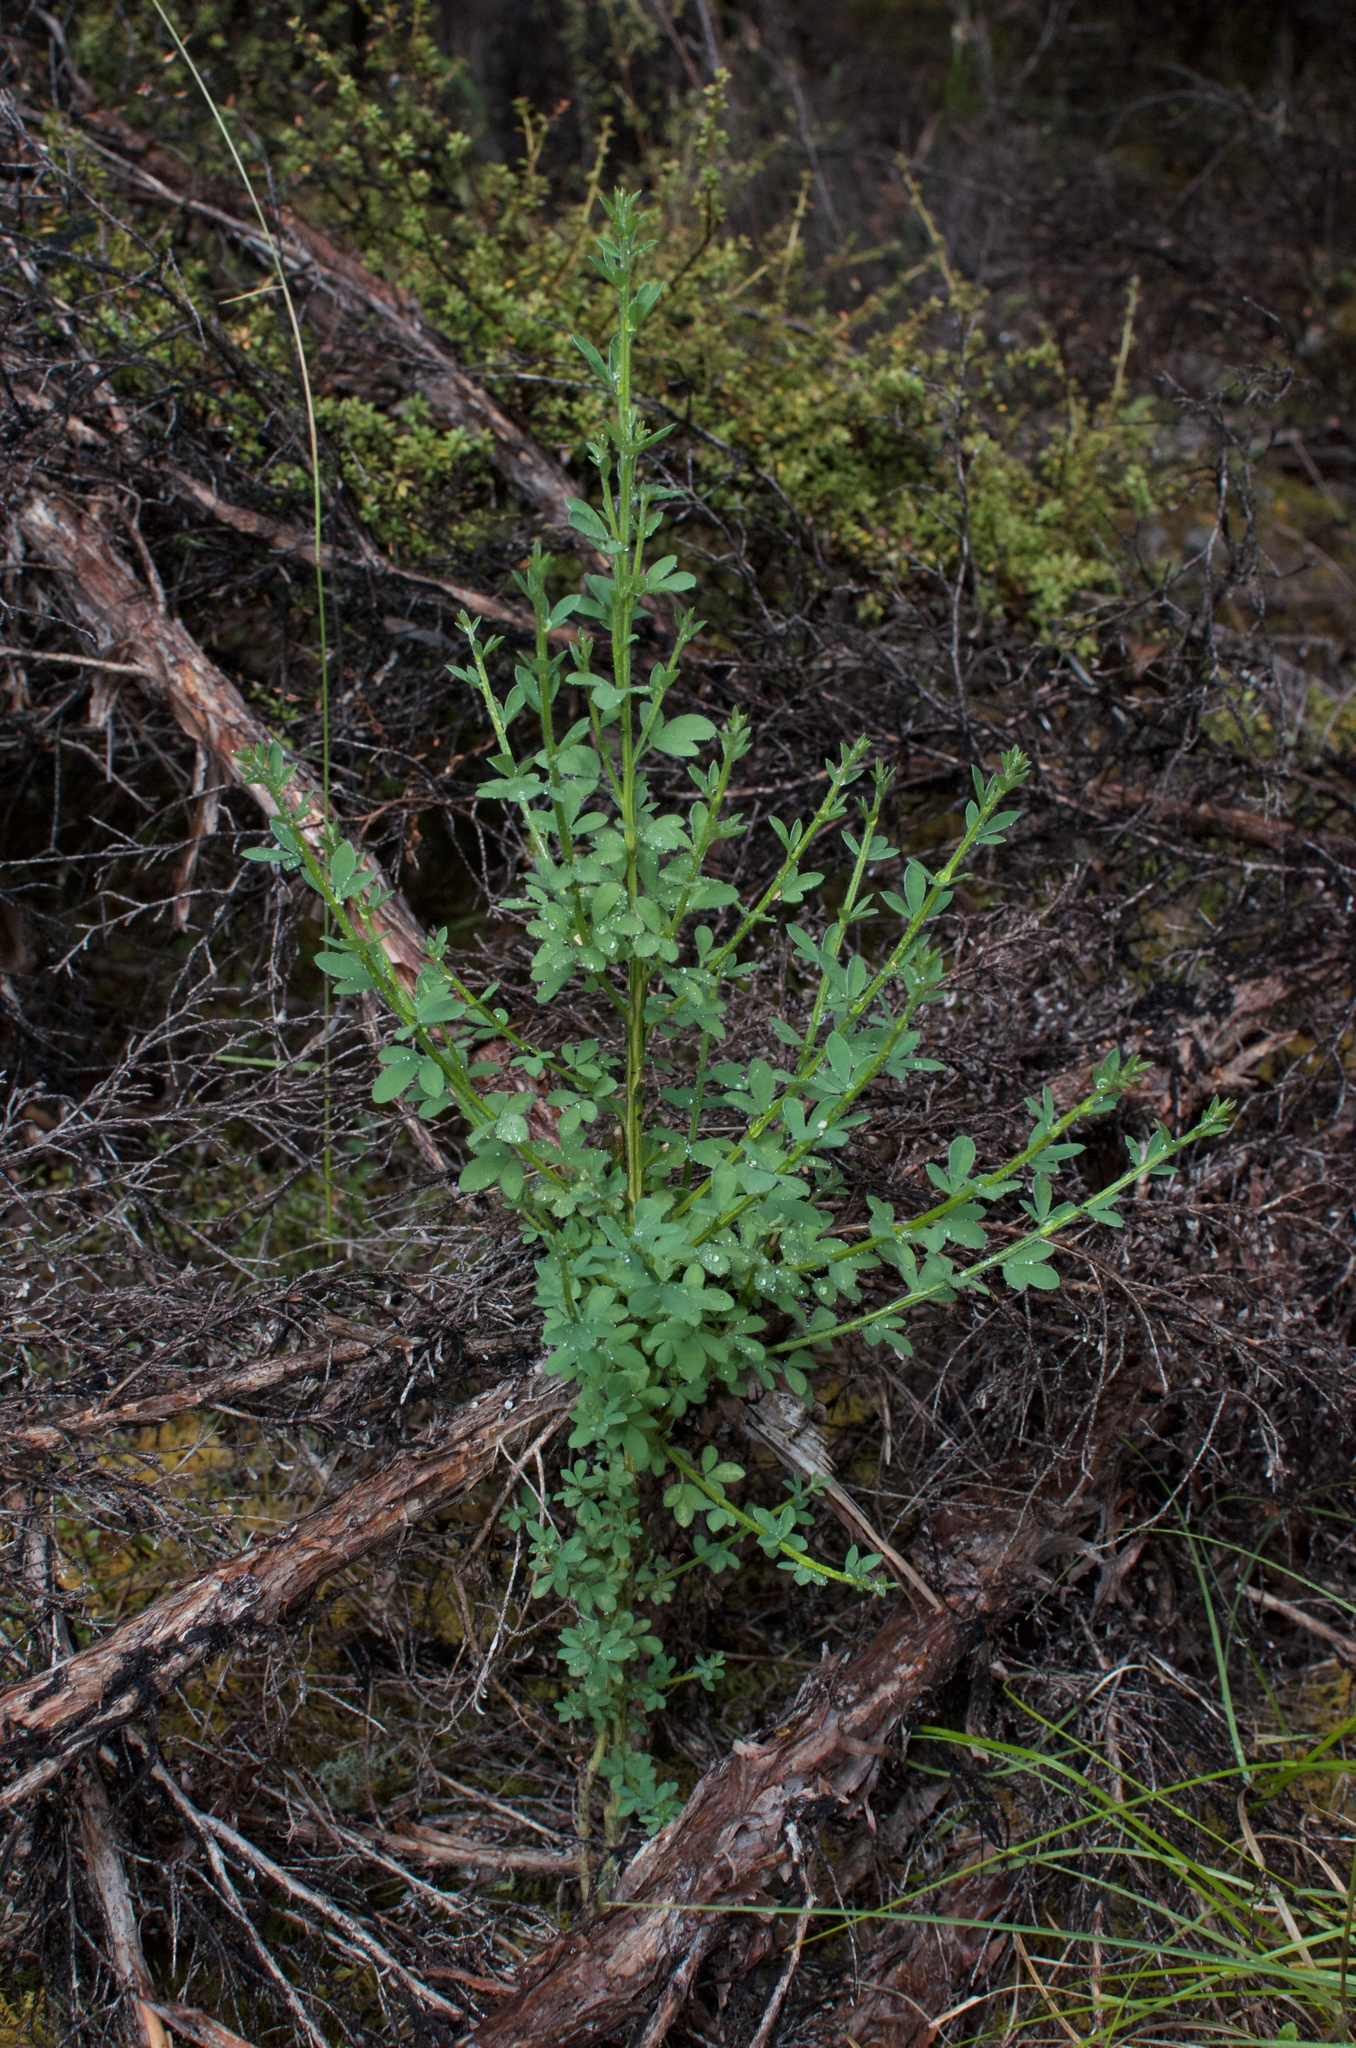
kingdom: Plantae
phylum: Tracheophyta
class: Magnoliopsida
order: Fabales
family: Fabaceae
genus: Cytisus
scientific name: Cytisus scoparius
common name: Scotch broom
